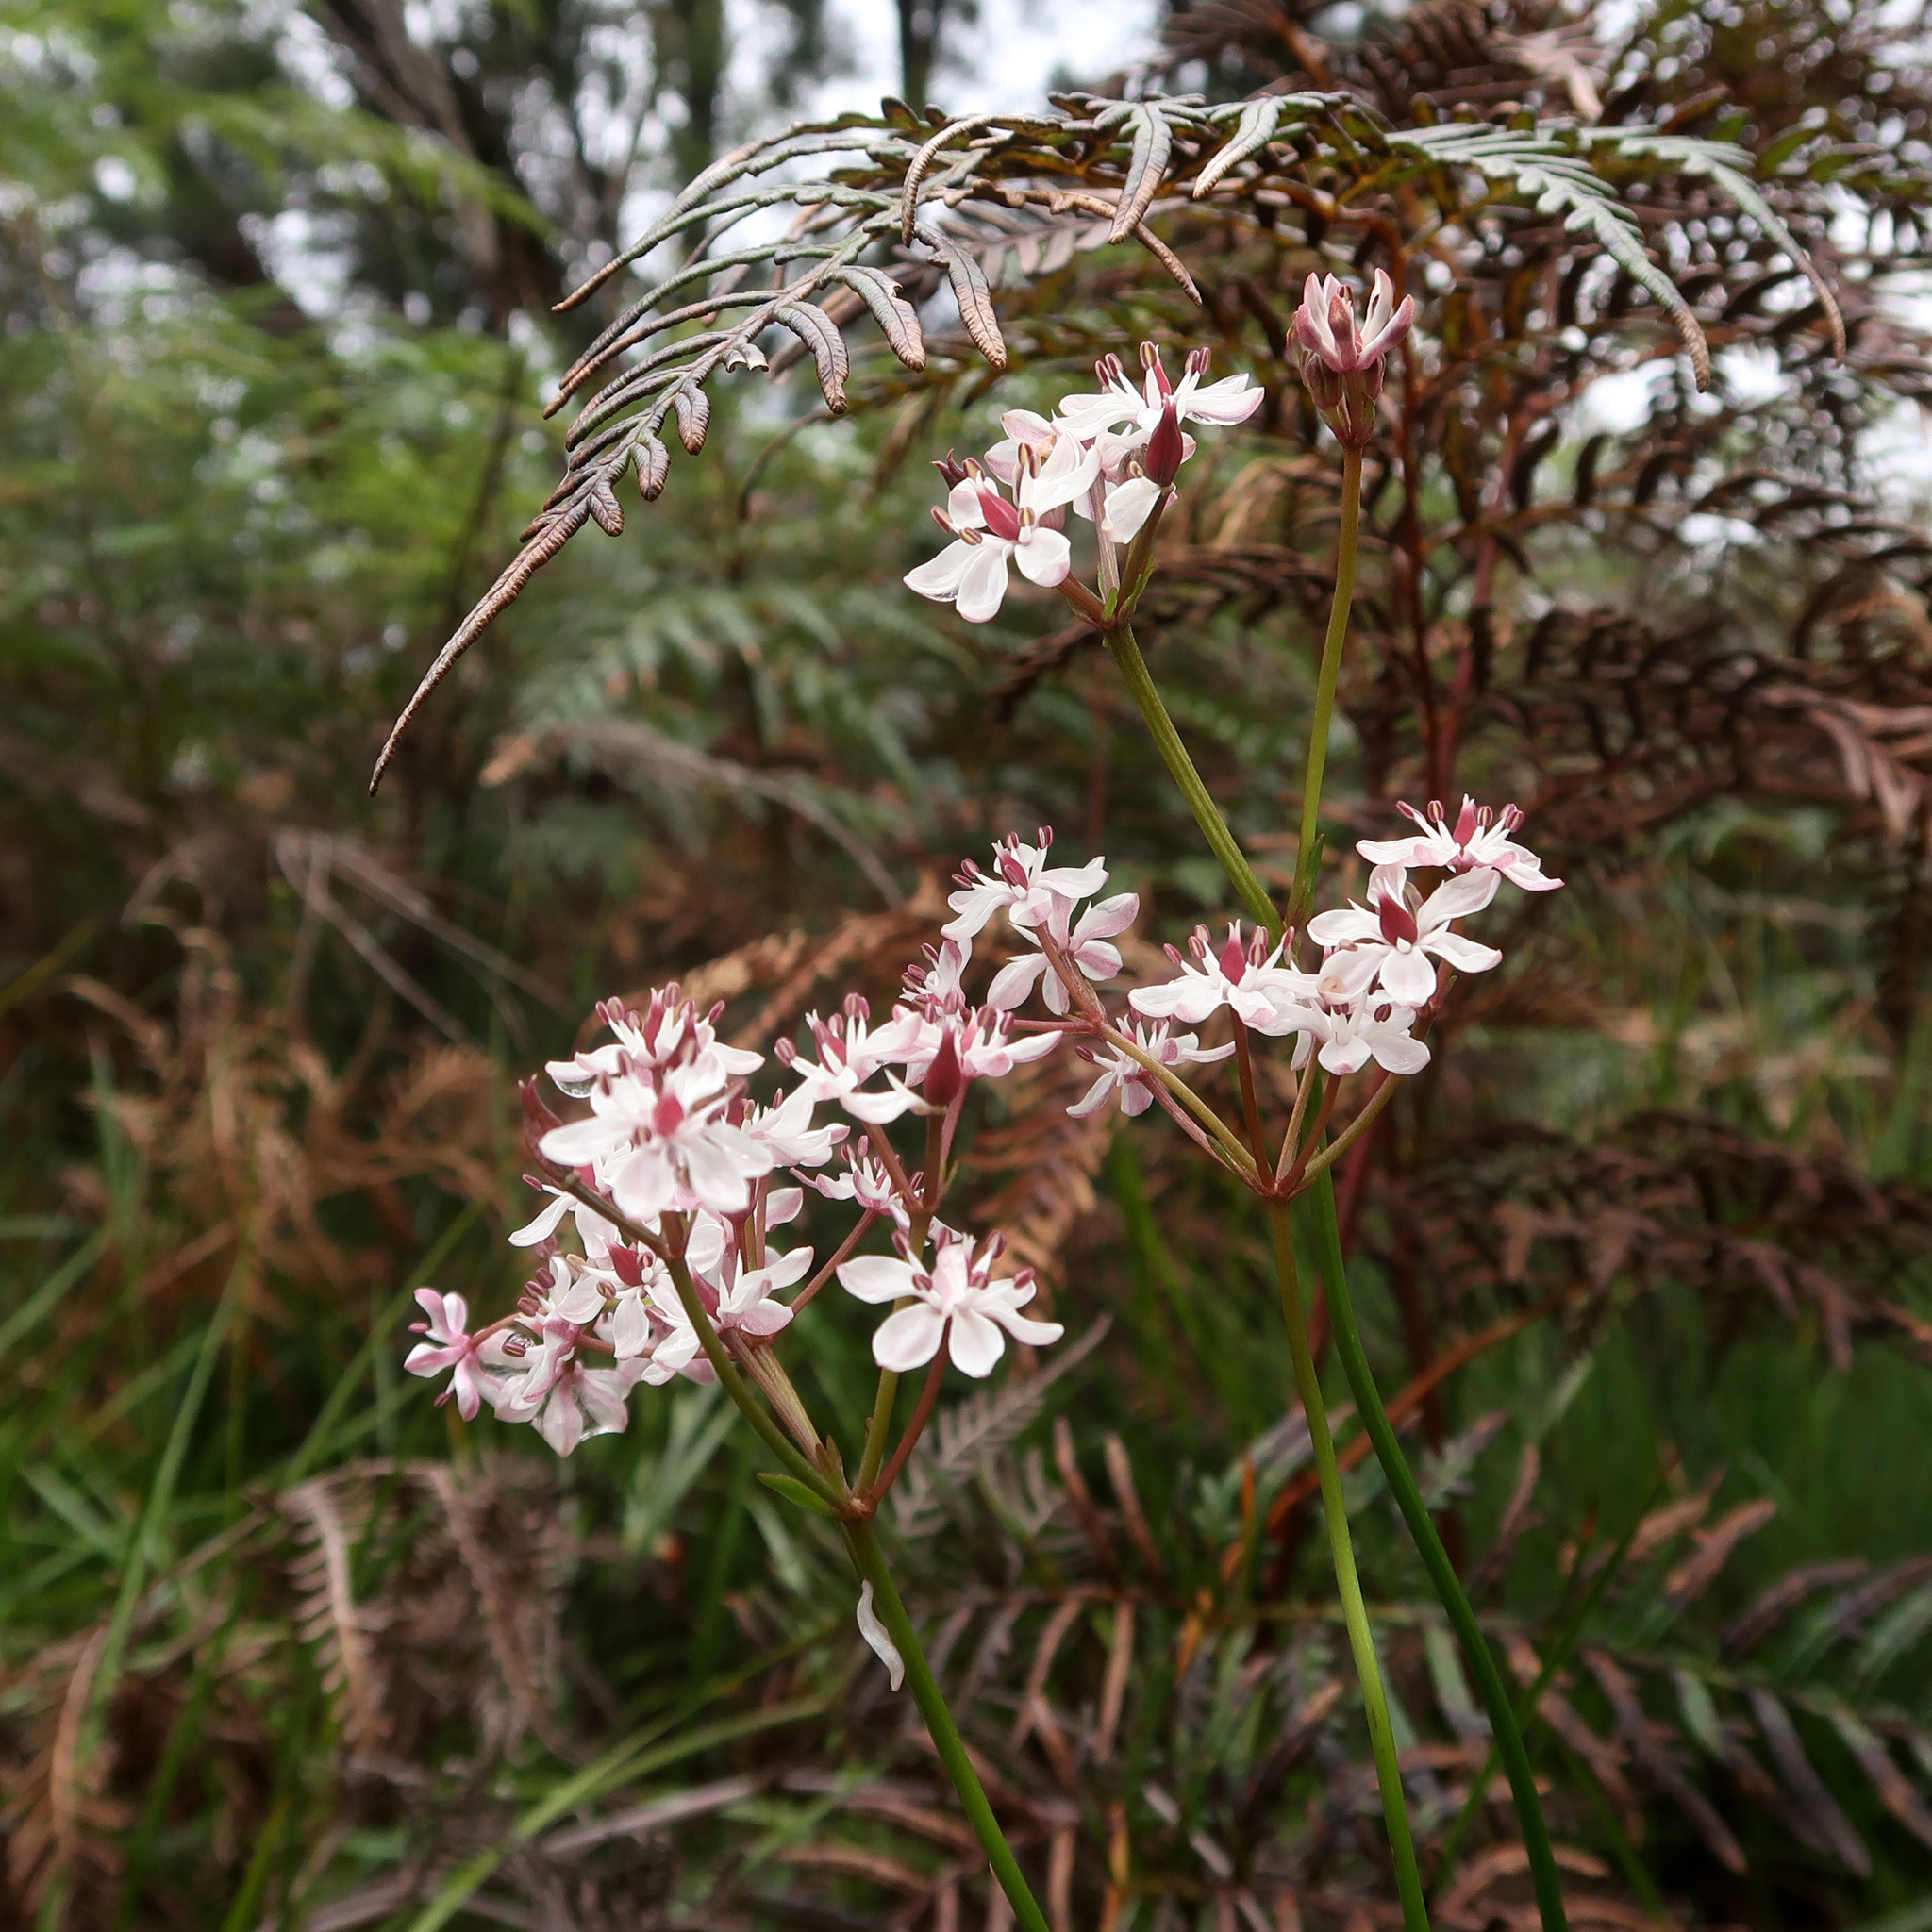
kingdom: Plantae
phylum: Tracheophyta
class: Liliopsida
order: Liliales
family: Colchicaceae
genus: Burchardia
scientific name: Burchardia umbellata
